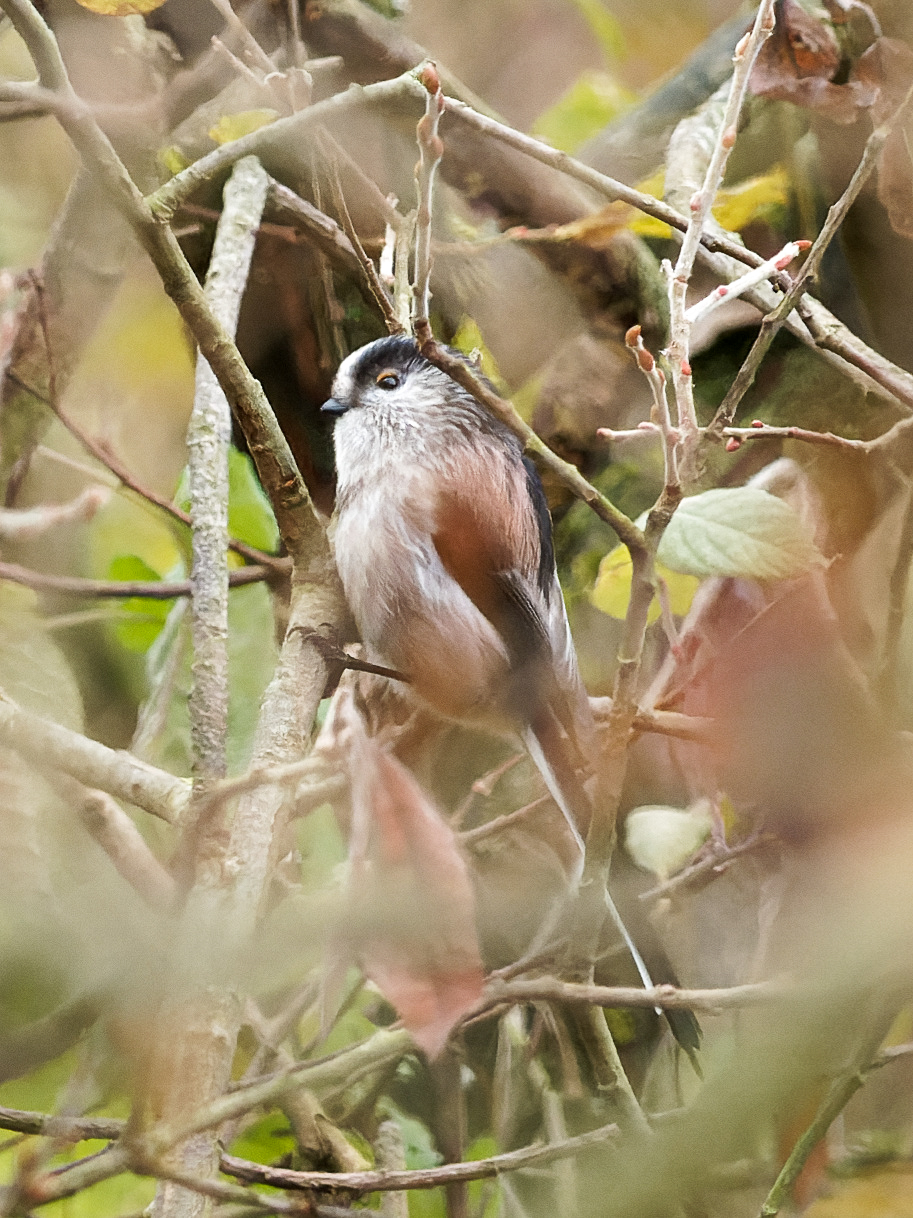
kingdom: Animalia
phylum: Chordata
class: Aves
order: Passeriformes
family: Aegithalidae
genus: Aegithalos
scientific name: Aegithalos caudatus
